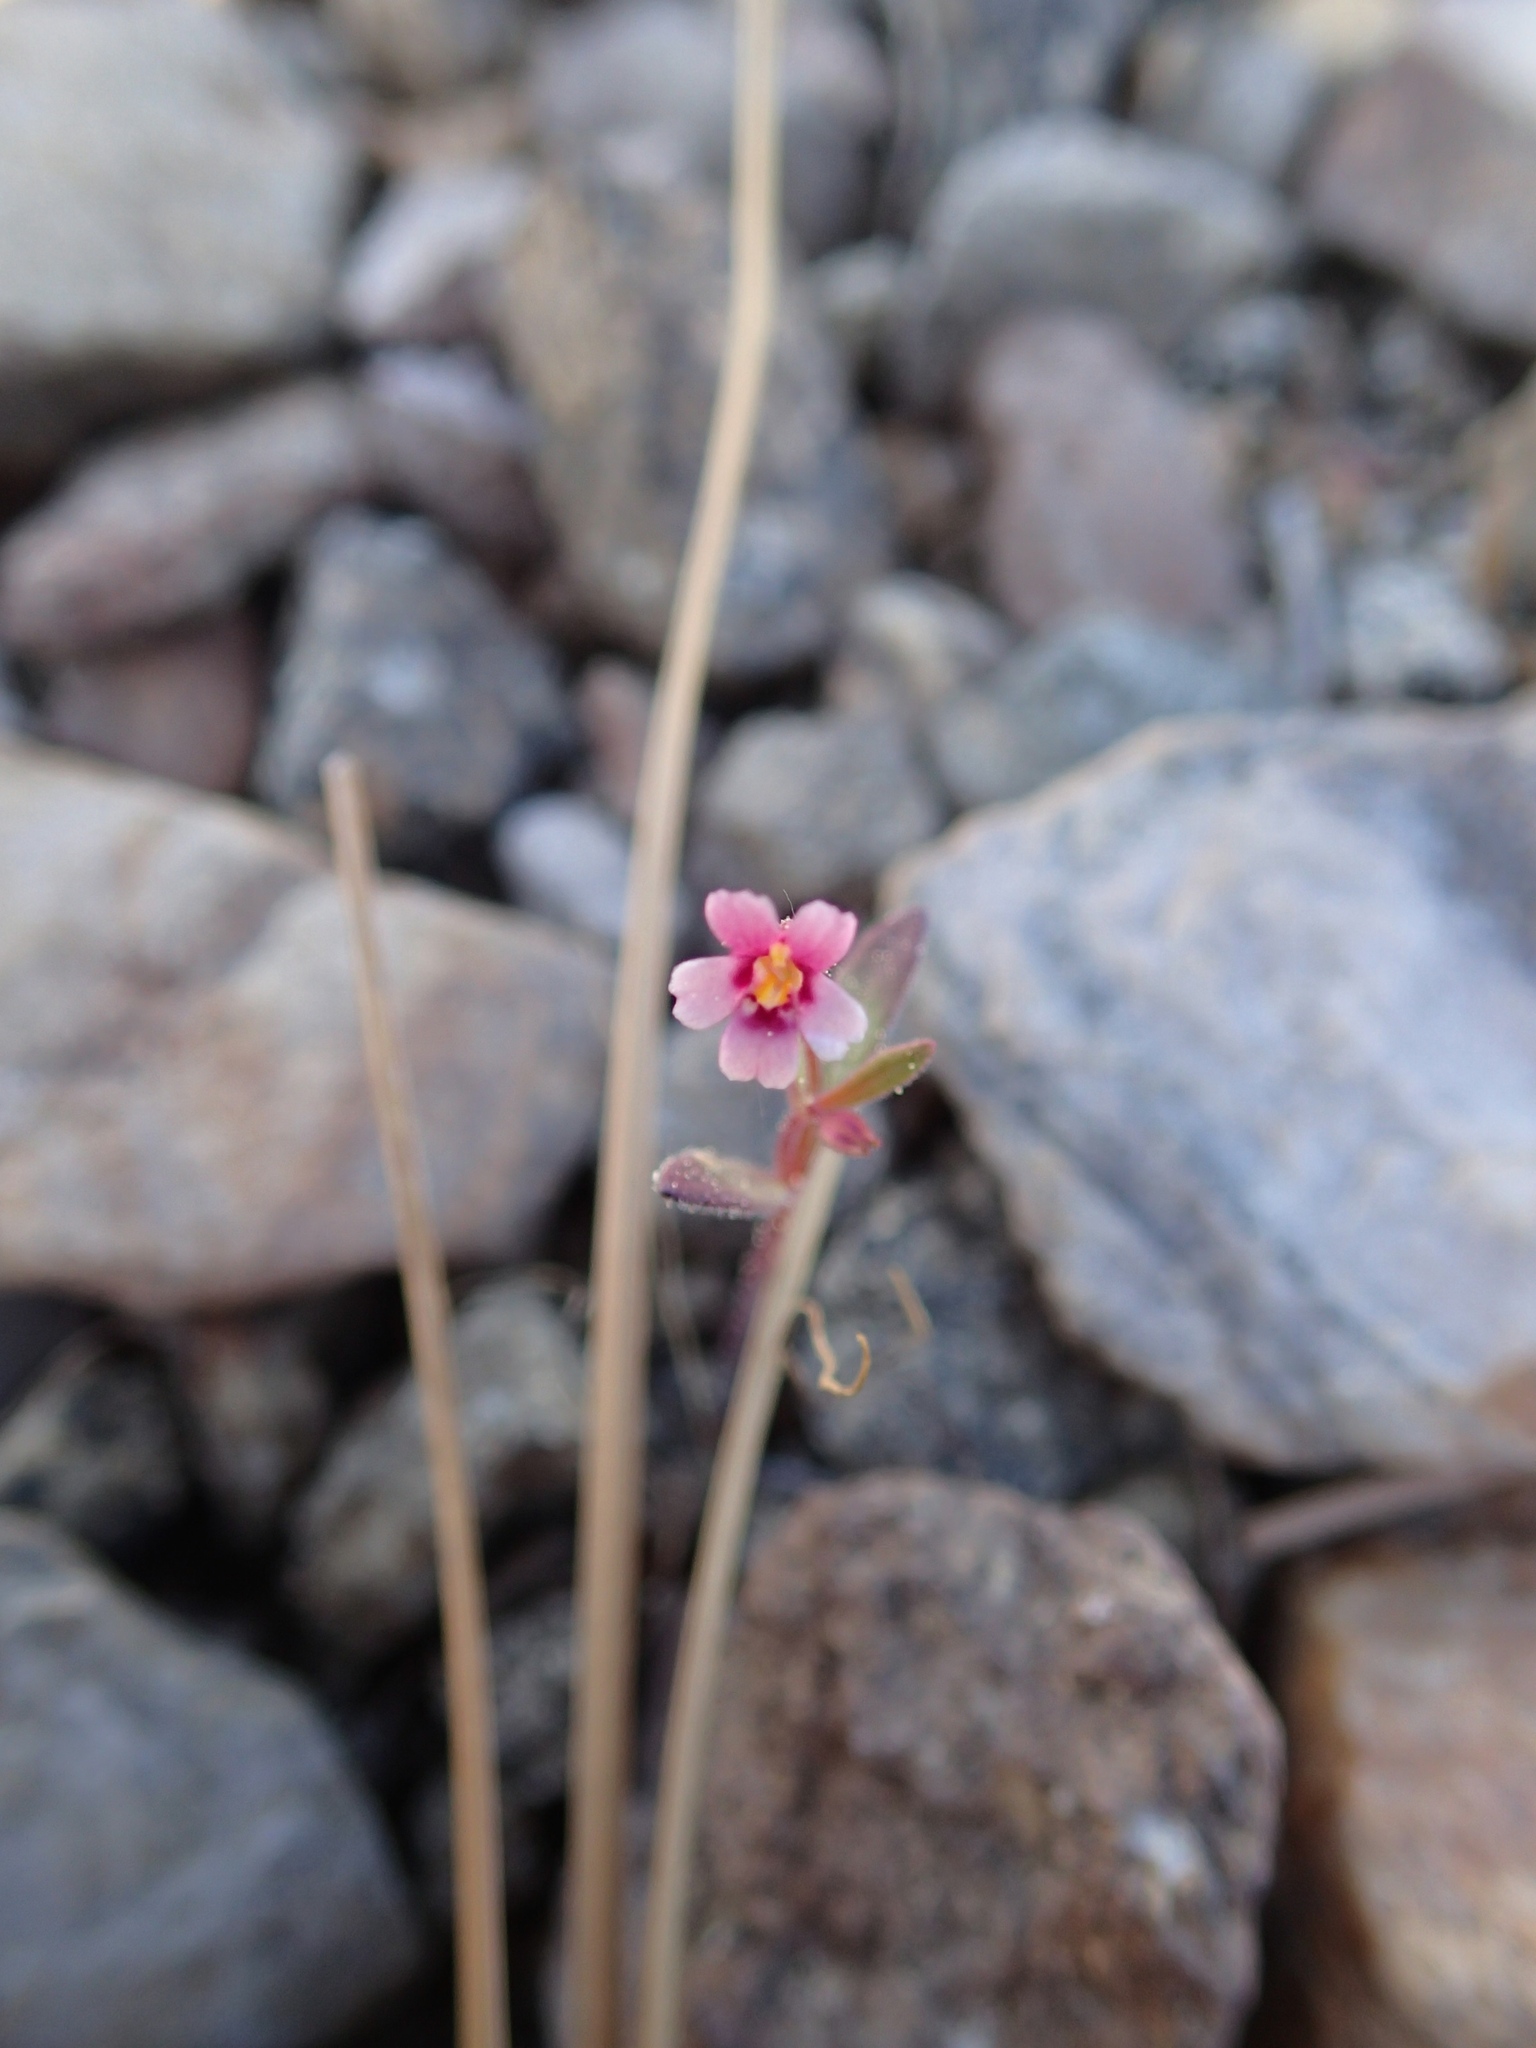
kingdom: Plantae
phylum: Tracheophyta
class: Magnoliopsida
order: Lamiales
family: Phrymaceae
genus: Erythranthe
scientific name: Erythranthe breweri
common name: Brewer's monkeyflower
